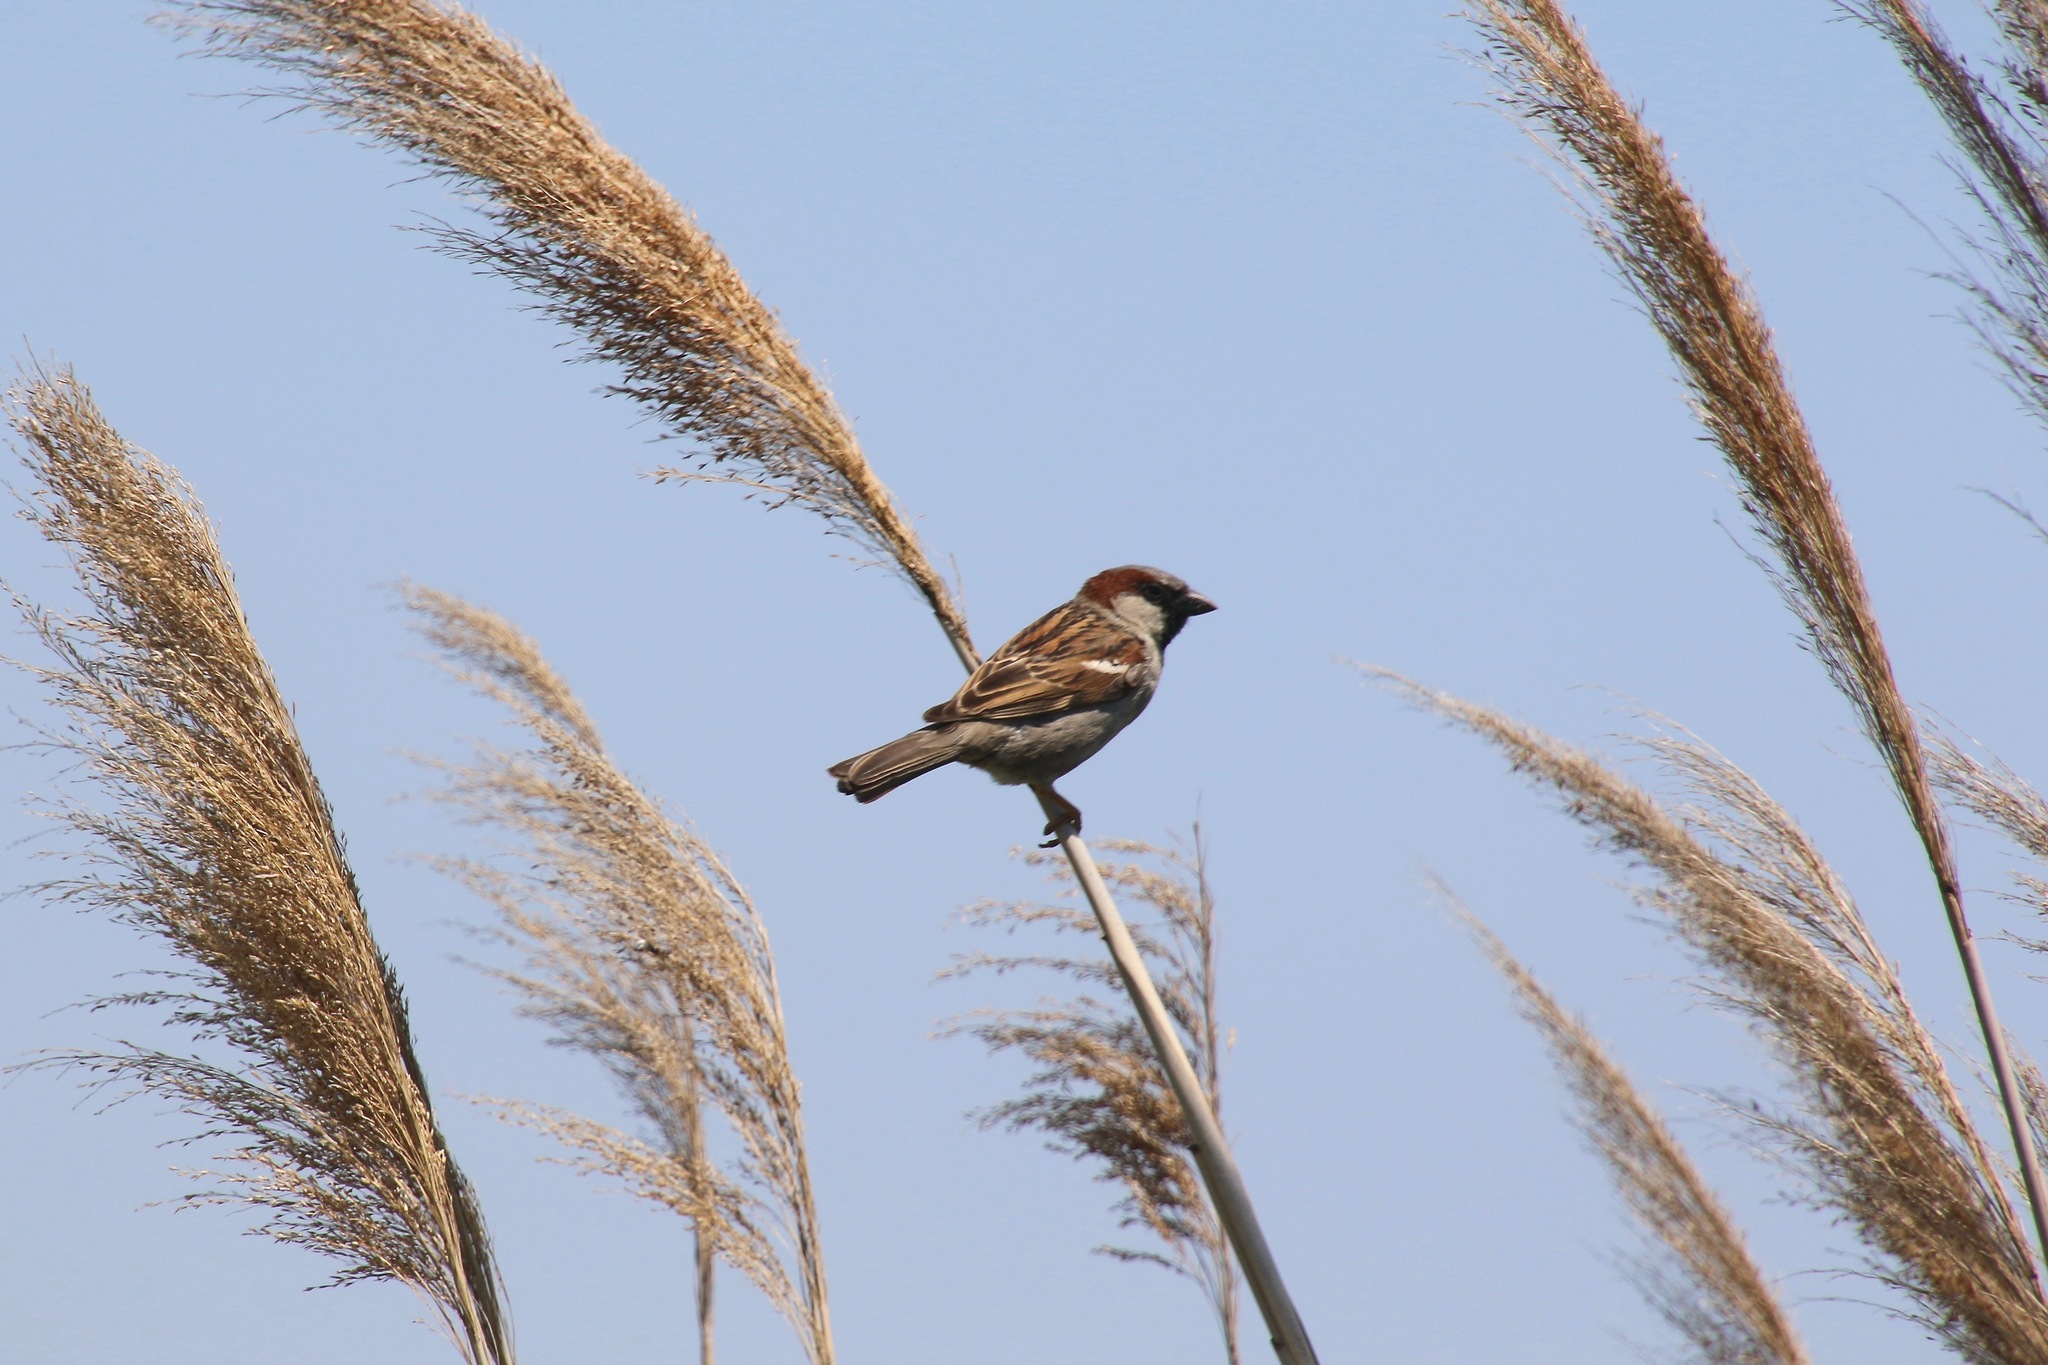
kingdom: Animalia
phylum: Chordata
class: Aves
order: Passeriformes
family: Passeridae
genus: Passer
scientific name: Passer domesticus
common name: House sparrow
